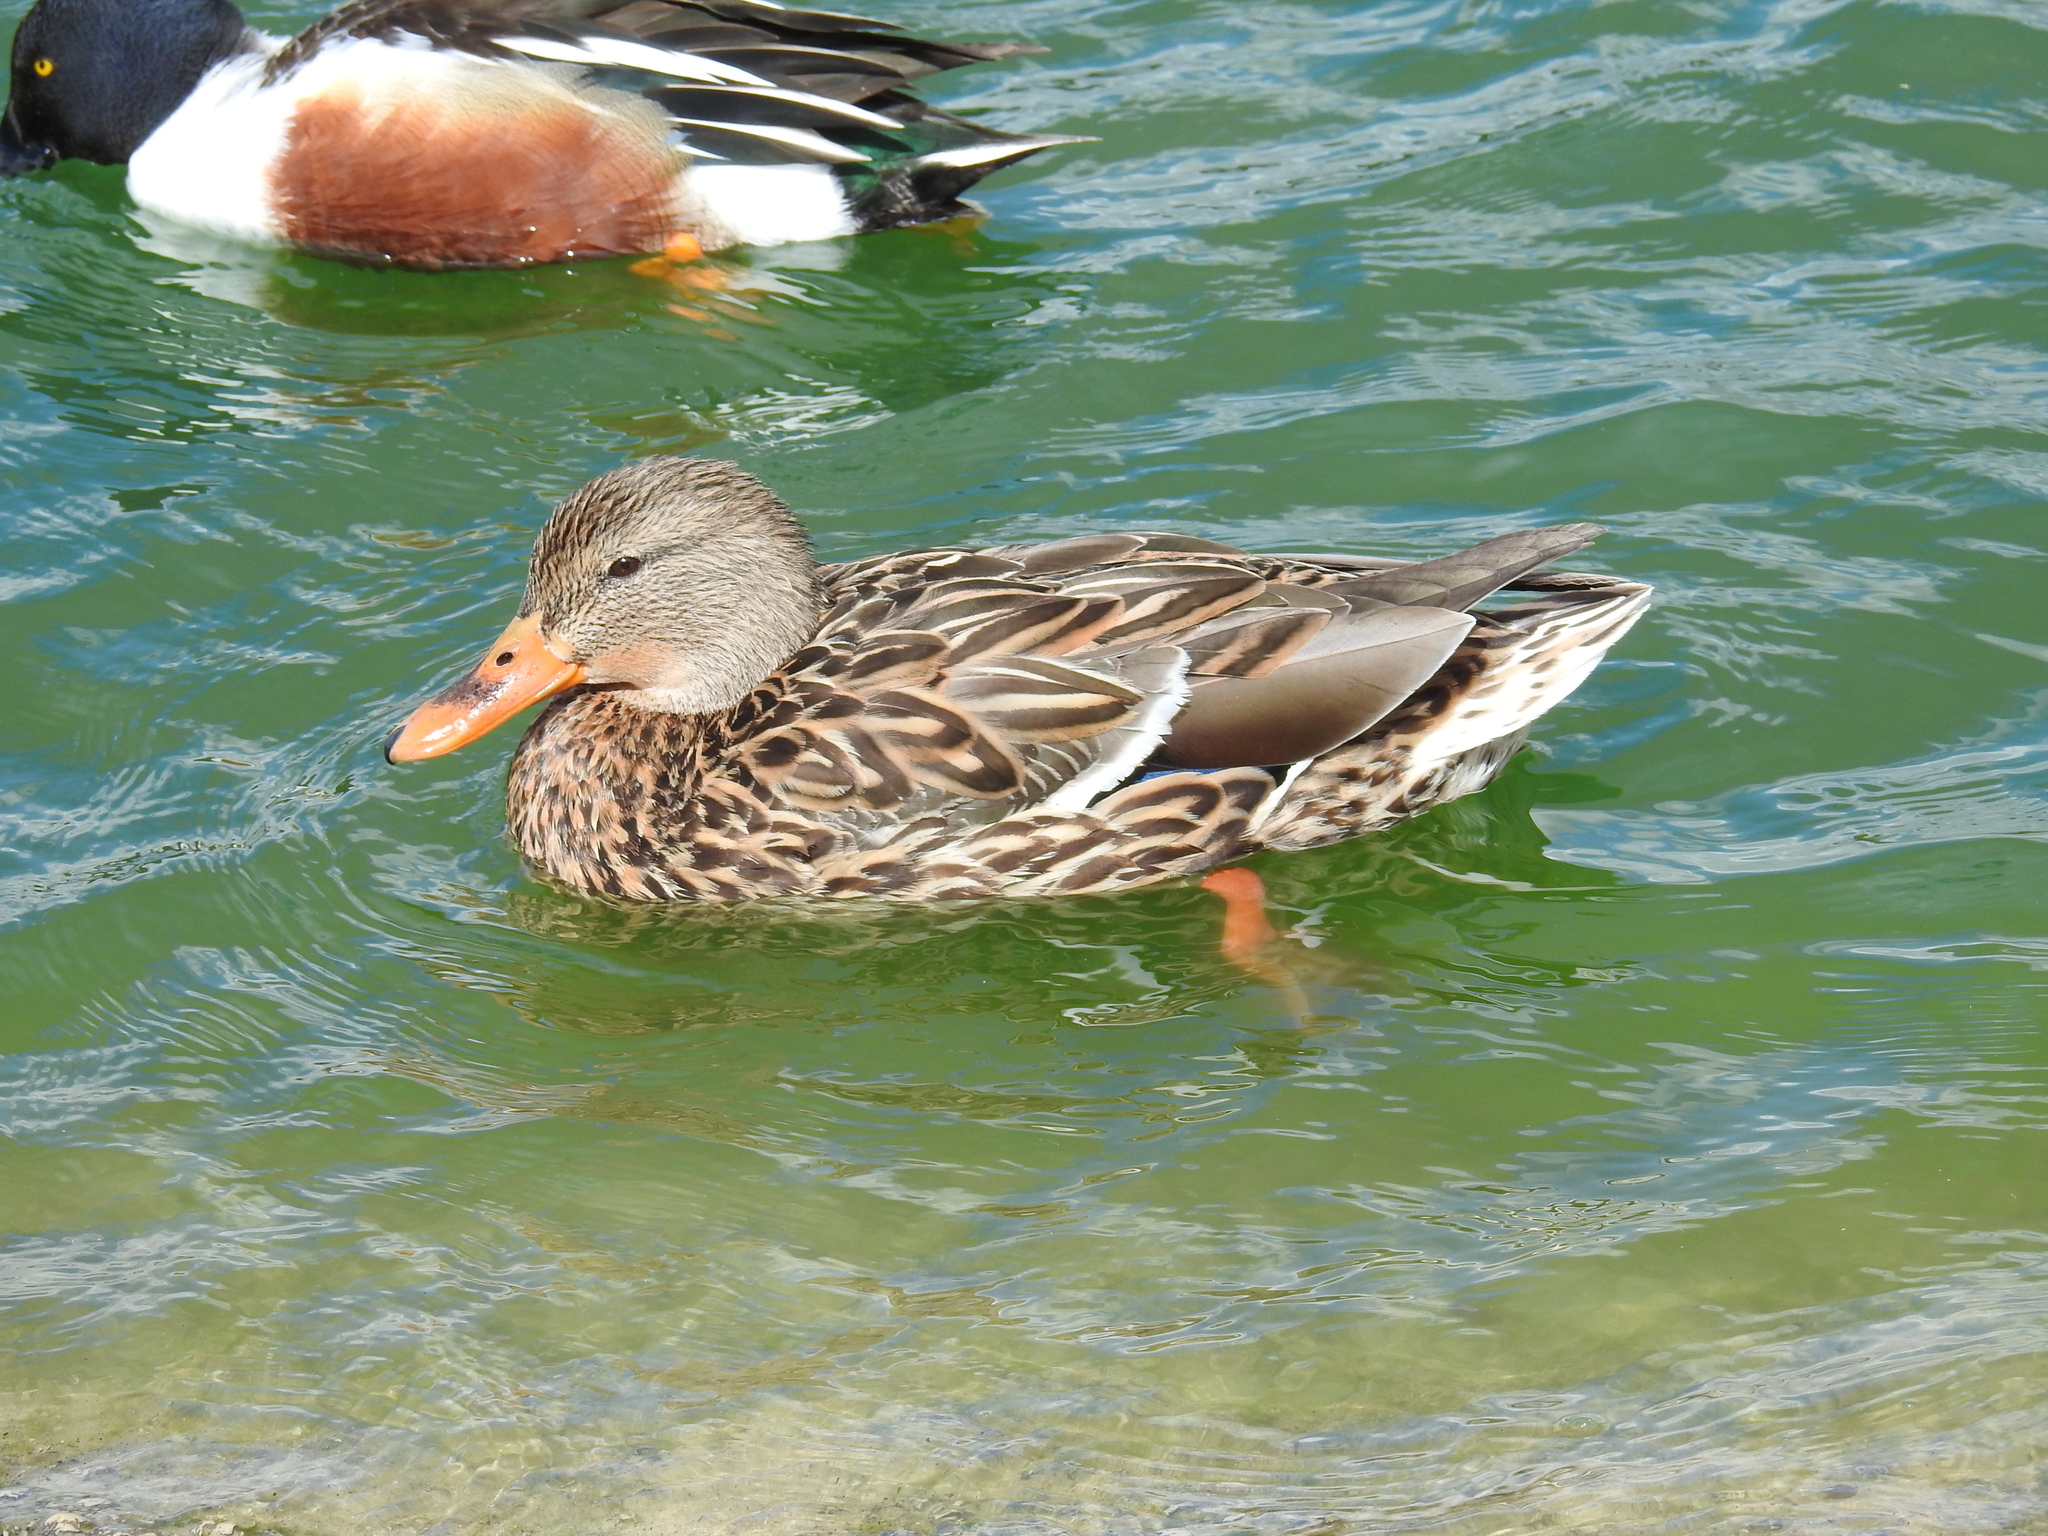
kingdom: Animalia
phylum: Chordata
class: Aves
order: Anseriformes
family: Anatidae
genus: Anas
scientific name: Anas platyrhynchos
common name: Mallard
